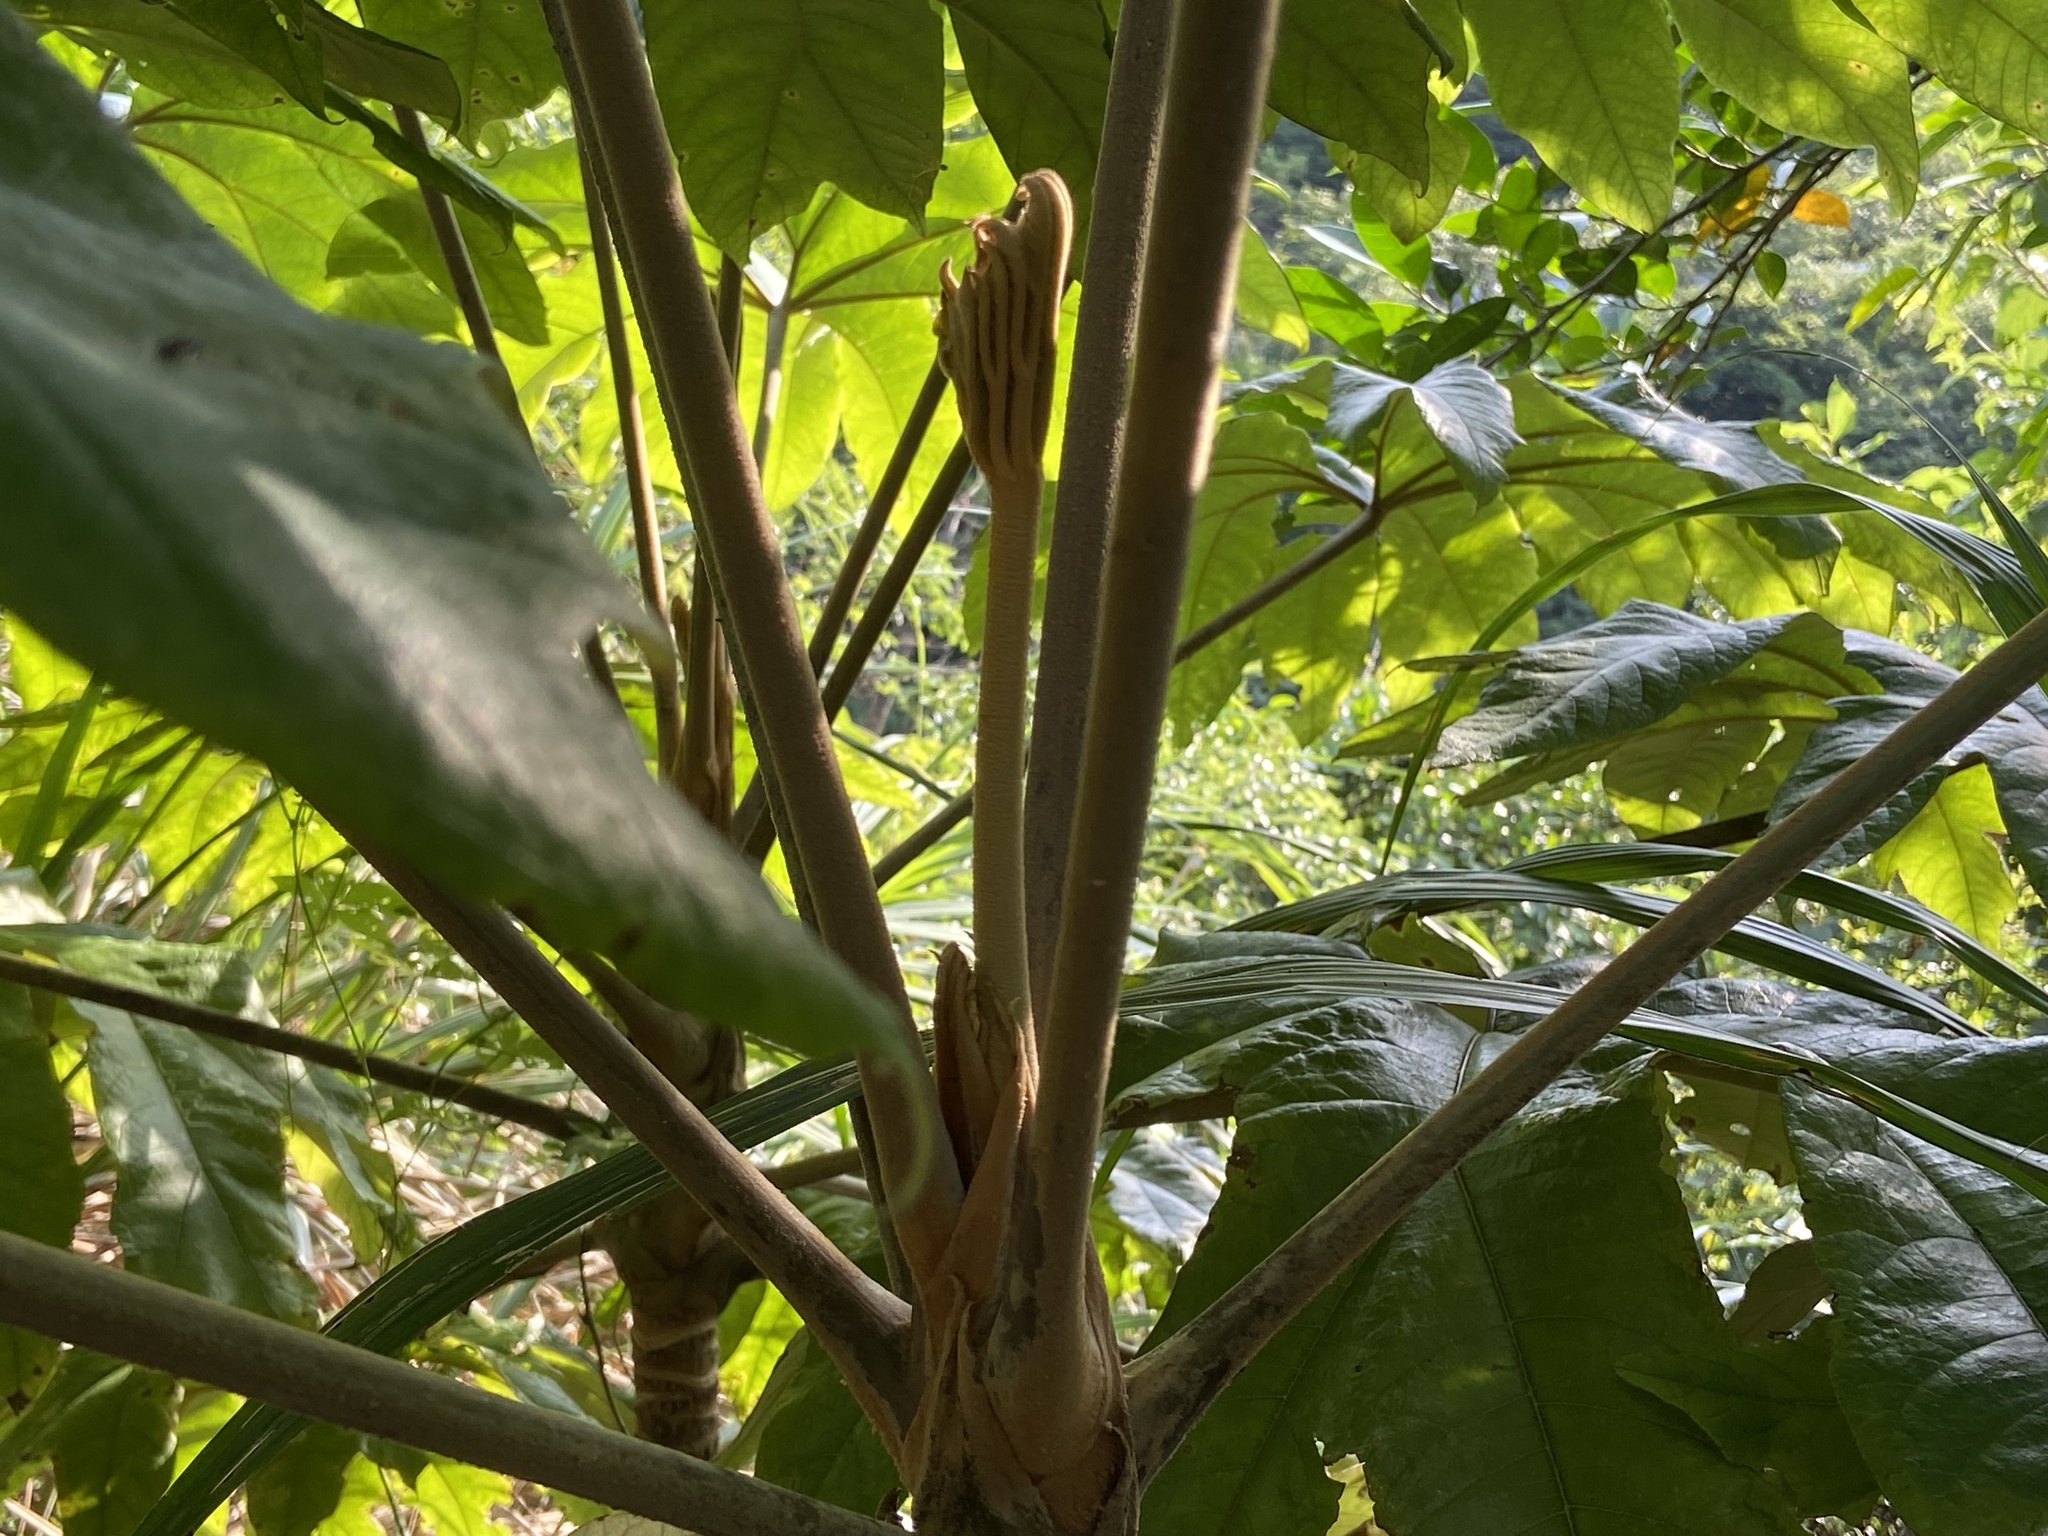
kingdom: Plantae
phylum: Tracheophyta
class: Magnoliopsida
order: Apiales
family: Araliaceae
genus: Tetrapanax
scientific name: Tetrapanax papyrifer
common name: Rice-paper plant
